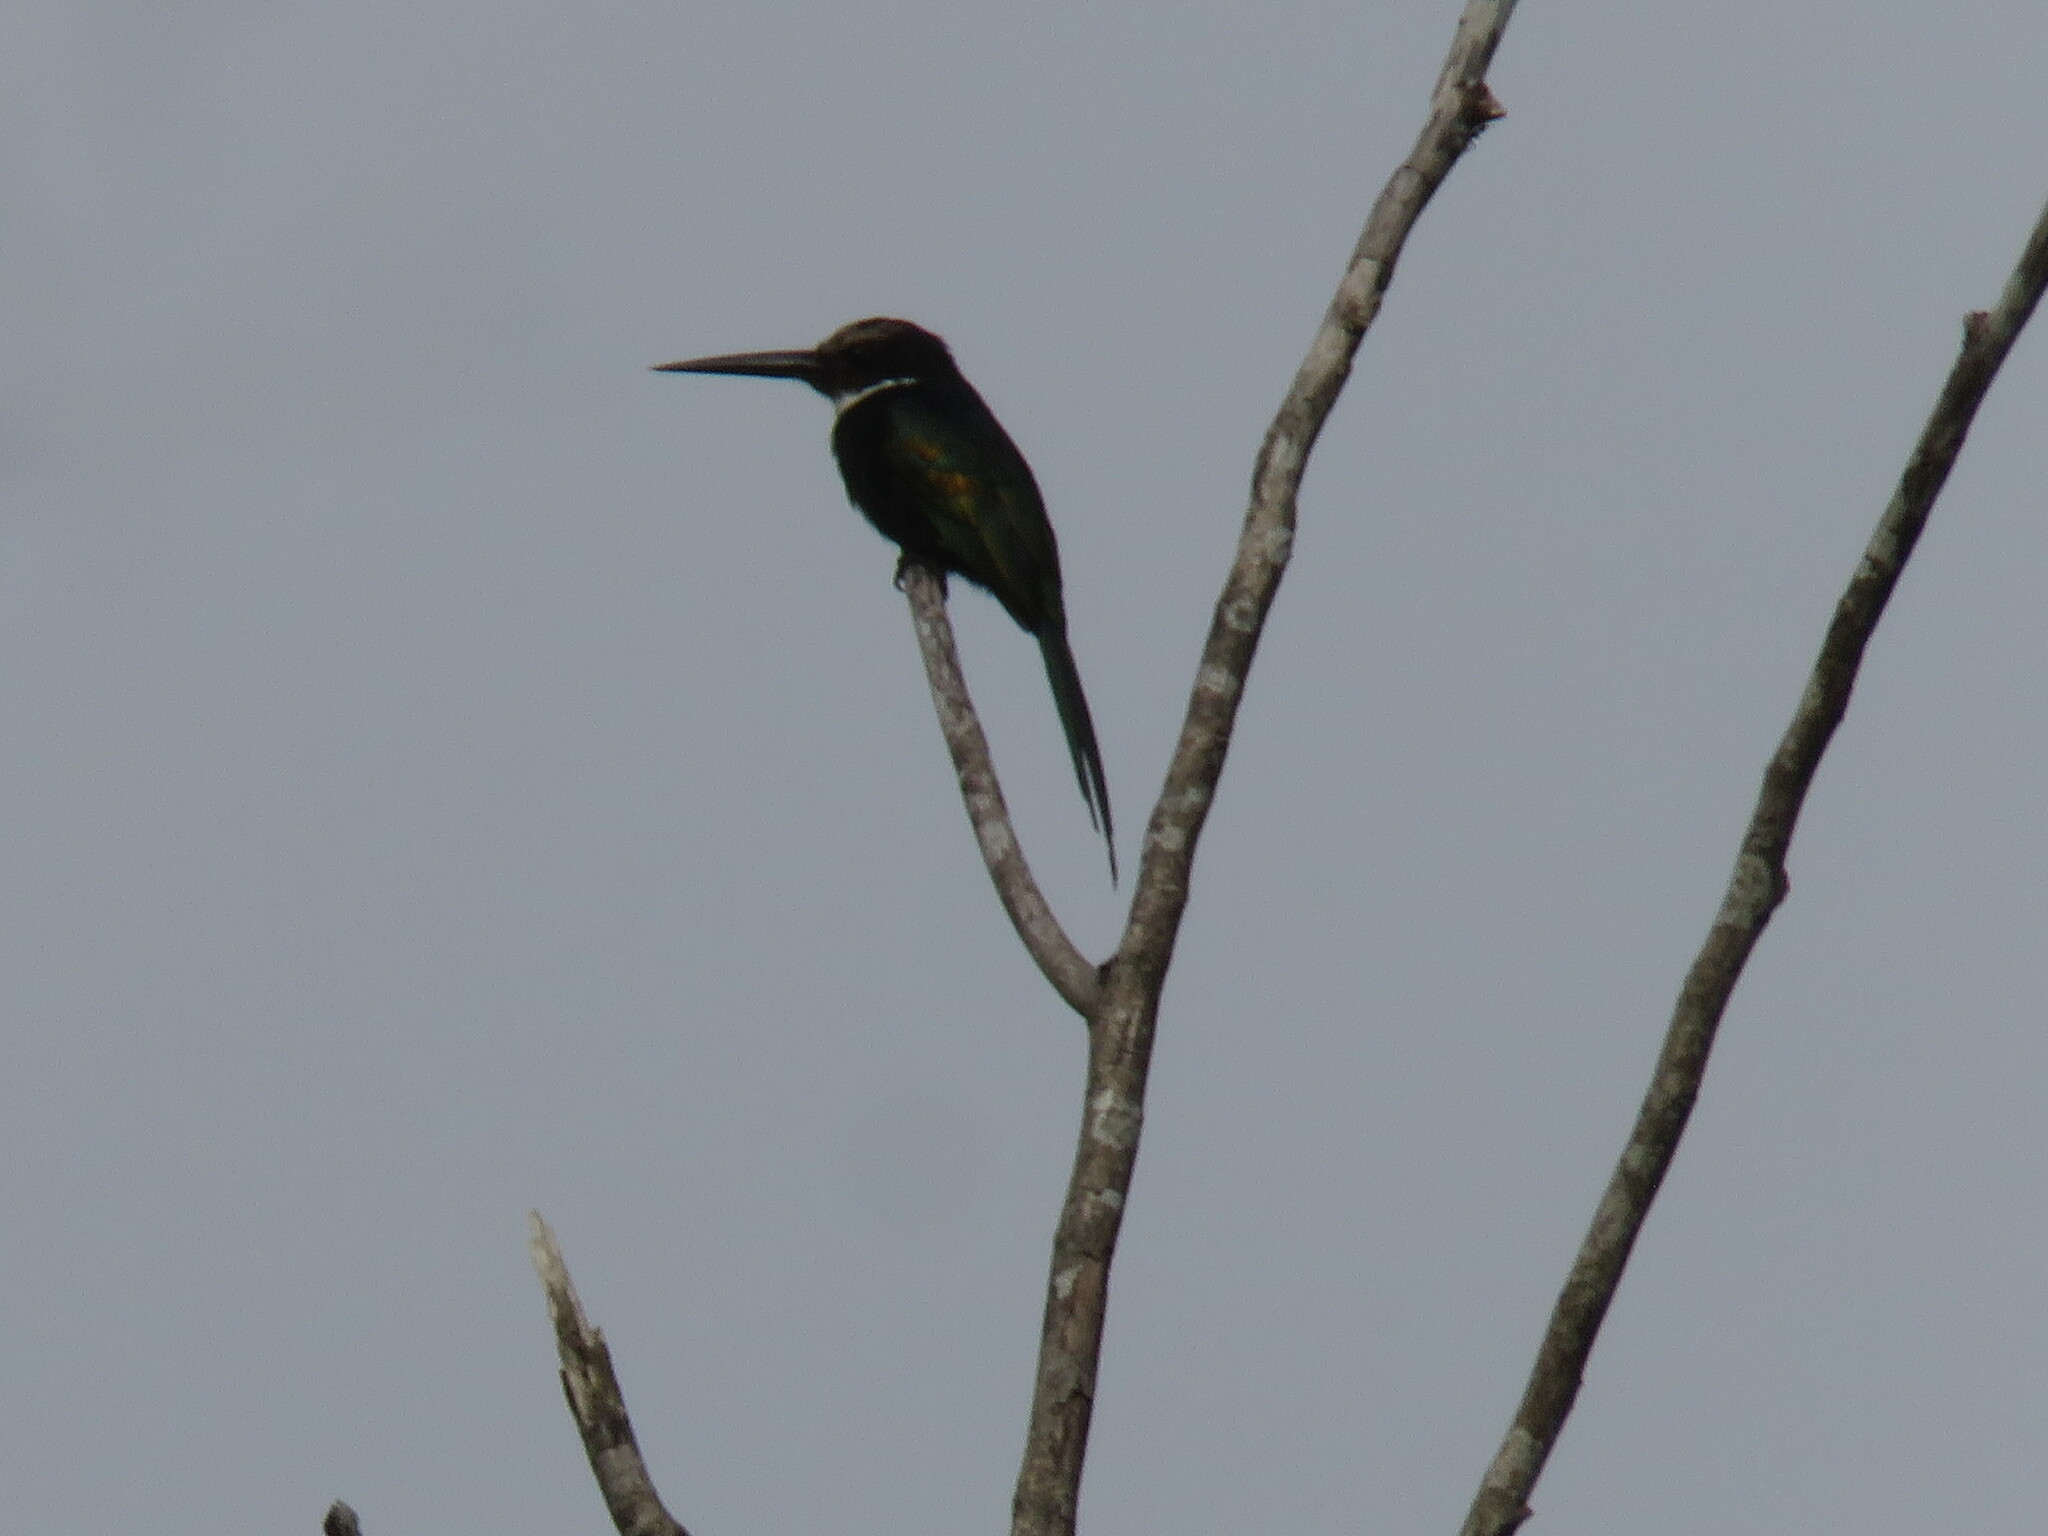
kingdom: Animalia
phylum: Chordata
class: Aves
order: Piciformes
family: Galbulidae
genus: Galbula
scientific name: Galbula dea
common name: Paradise jacamar
